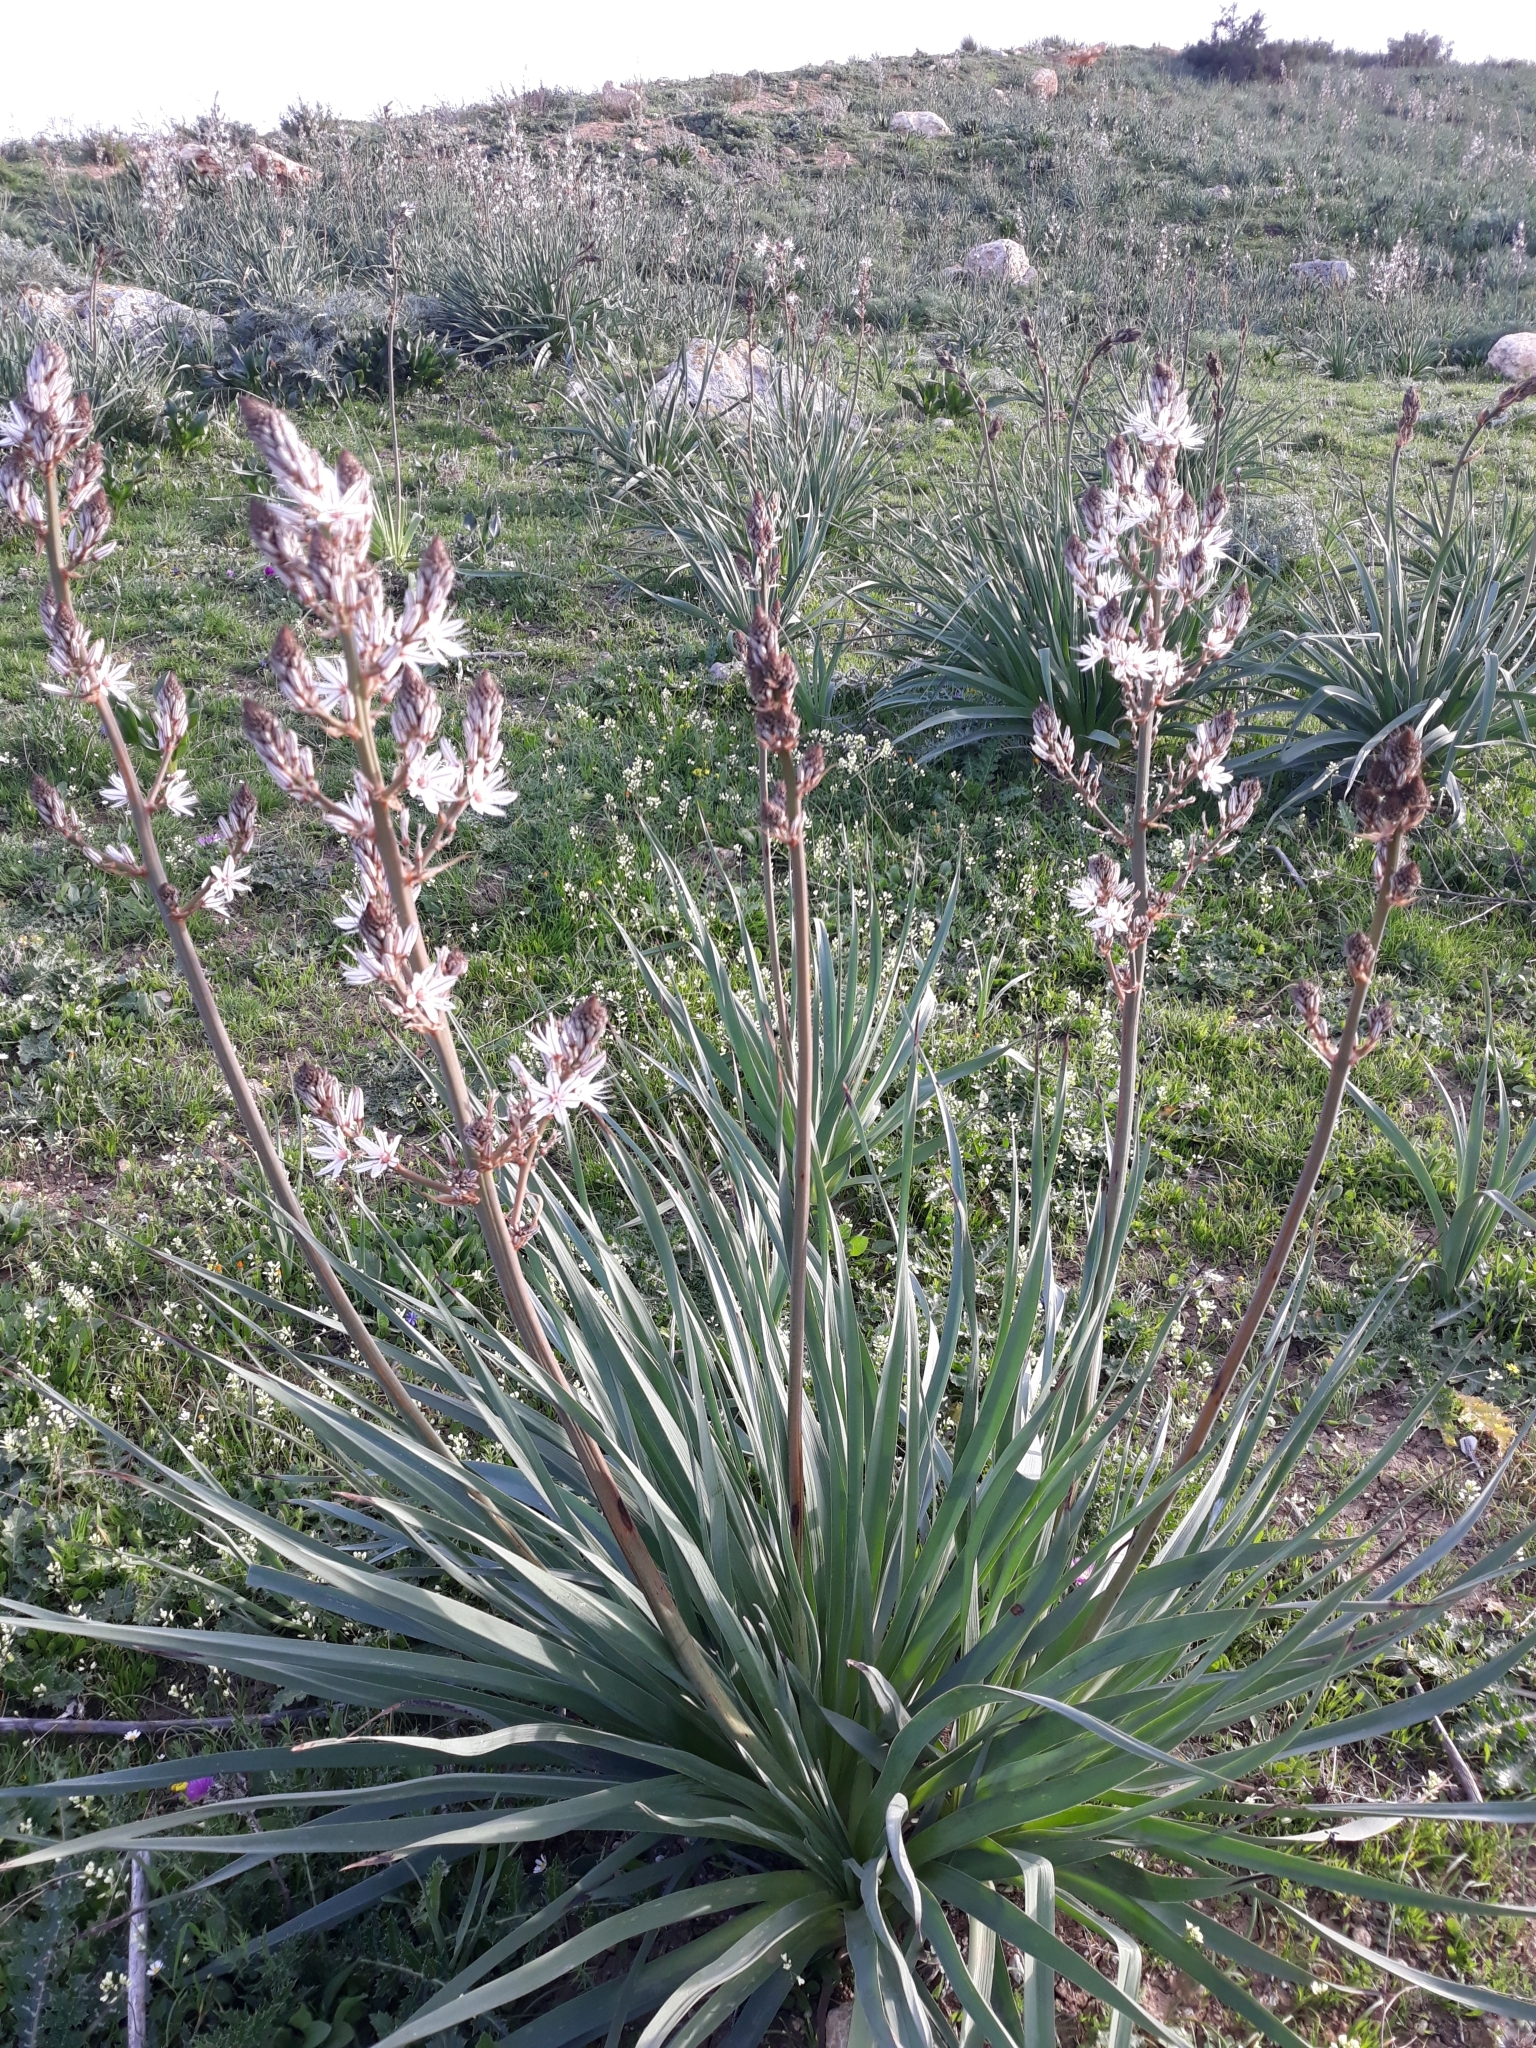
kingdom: Plantae
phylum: Tracheophyta
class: Liliopsida
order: Asparagales
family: Asphodelaceae
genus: Asphodelus
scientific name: Asphodelus ramosus
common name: Silverrod
